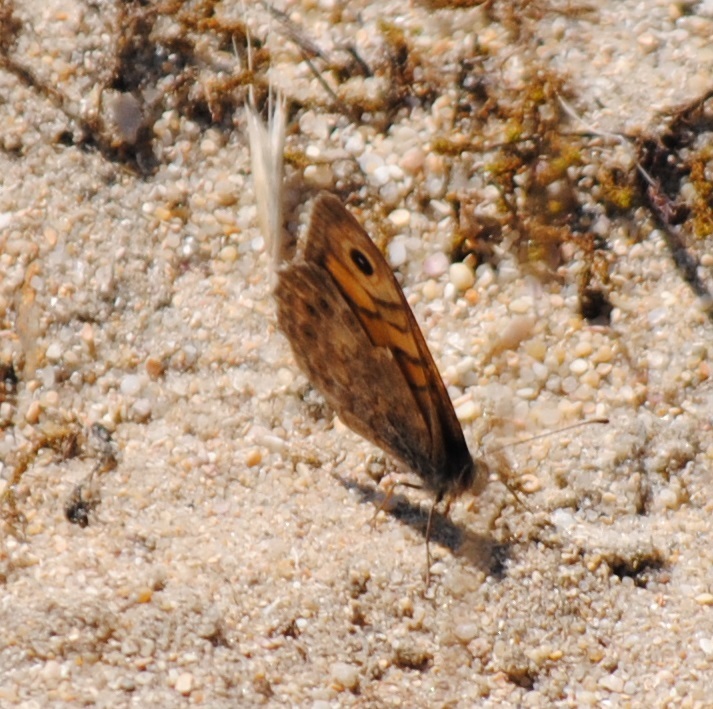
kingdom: Animalia
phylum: Arthropoda
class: Insecta
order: Lepidoptera
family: Nymphalidae
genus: Pararge
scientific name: Pararge Lasiommata megera
